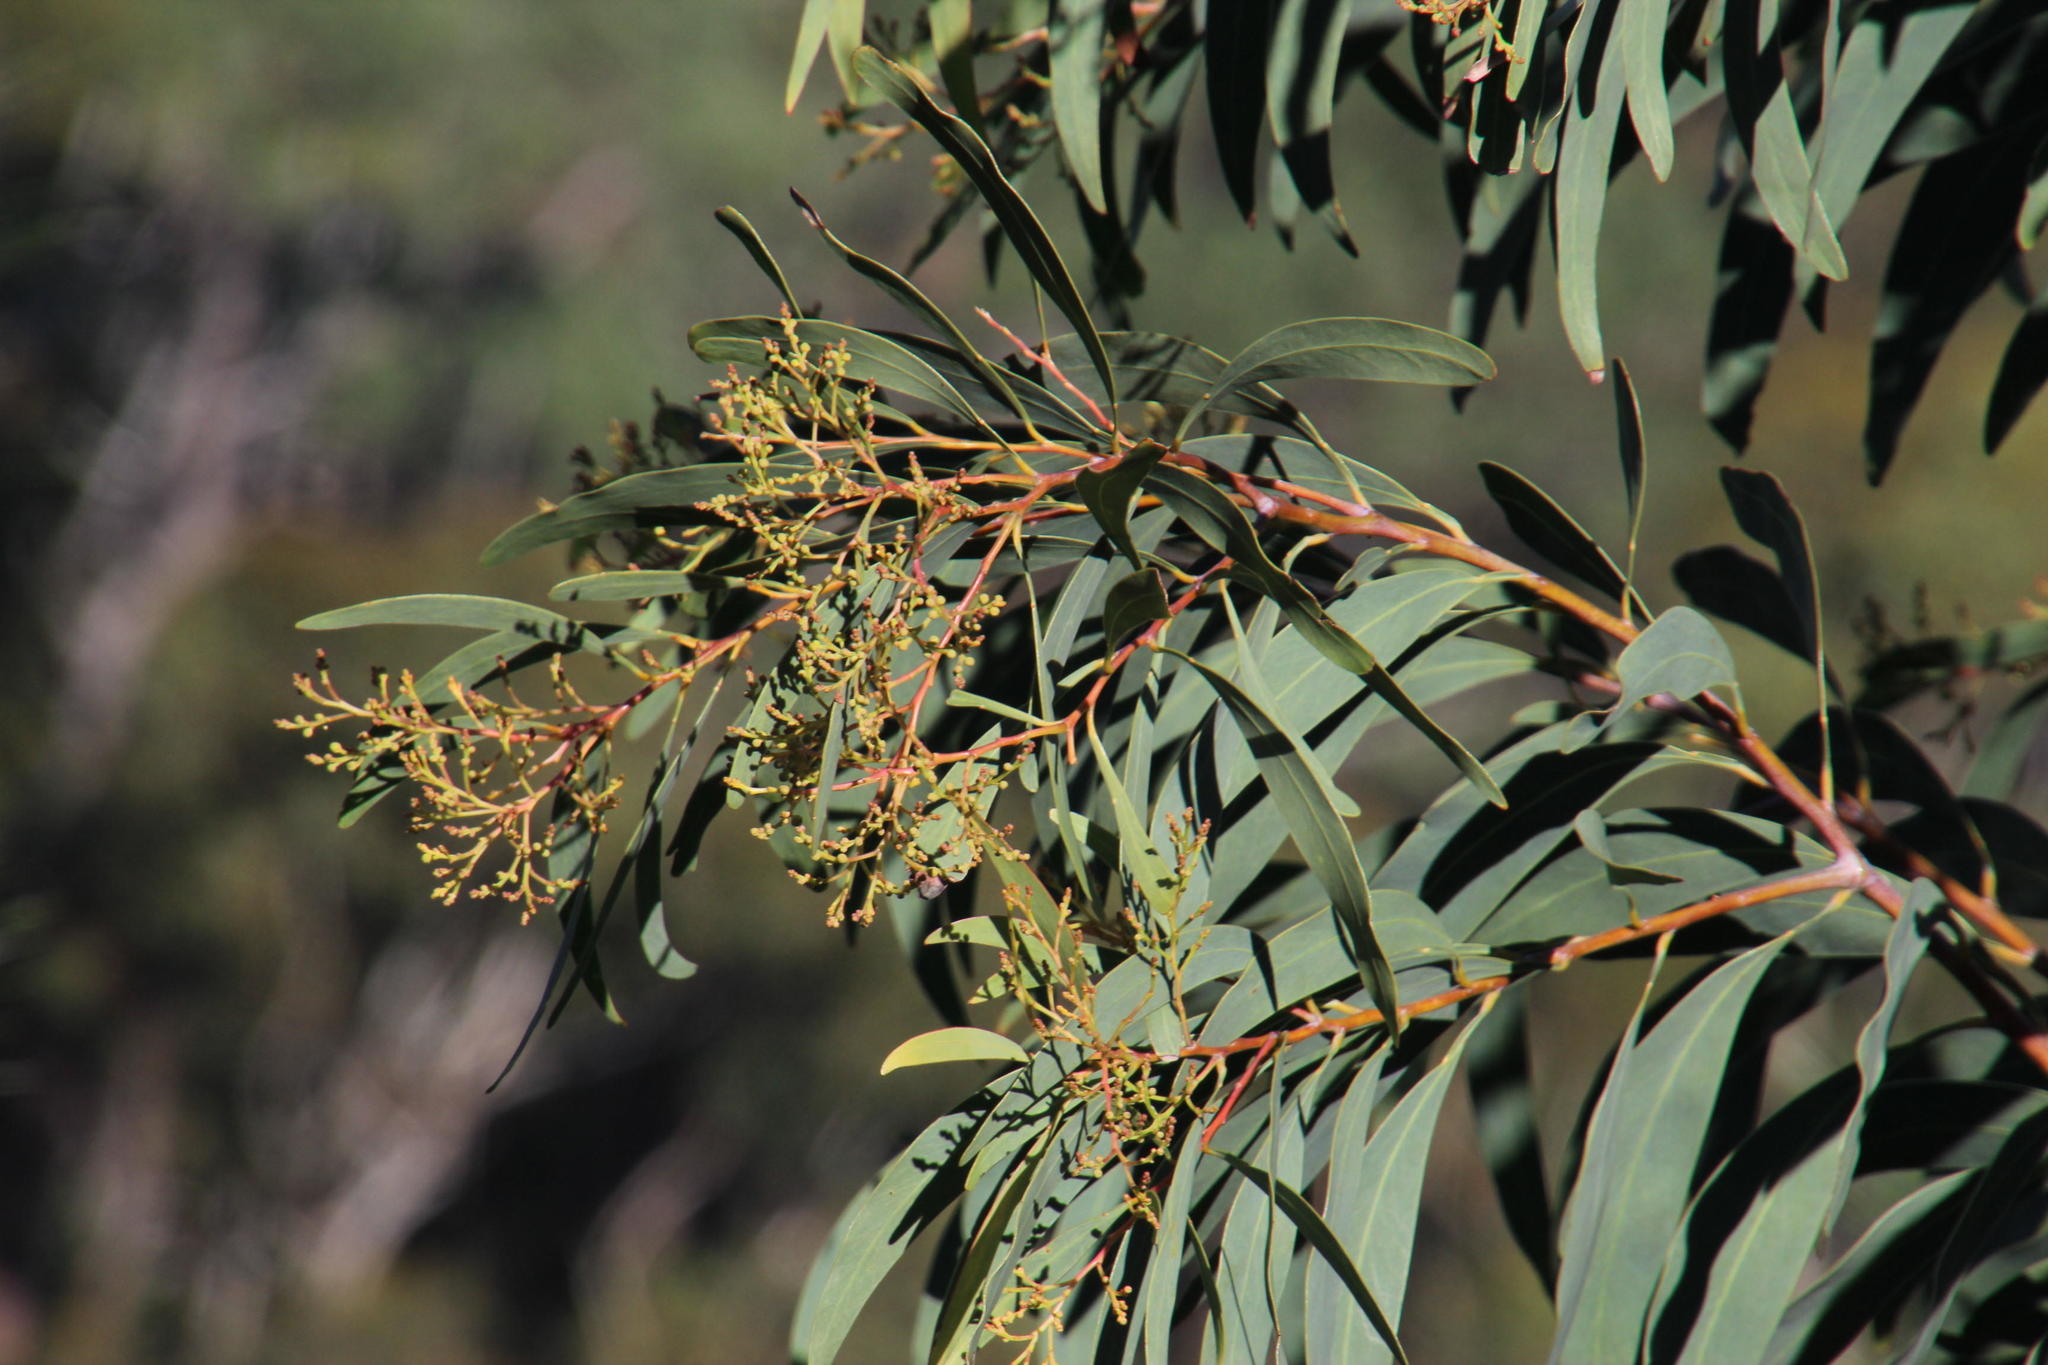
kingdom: Plantae
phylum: Tracheophyta
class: Magnoliopsida
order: Fabales
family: Fabaceae
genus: Acacia
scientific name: Acacia falciformis
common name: Tanning wattle
